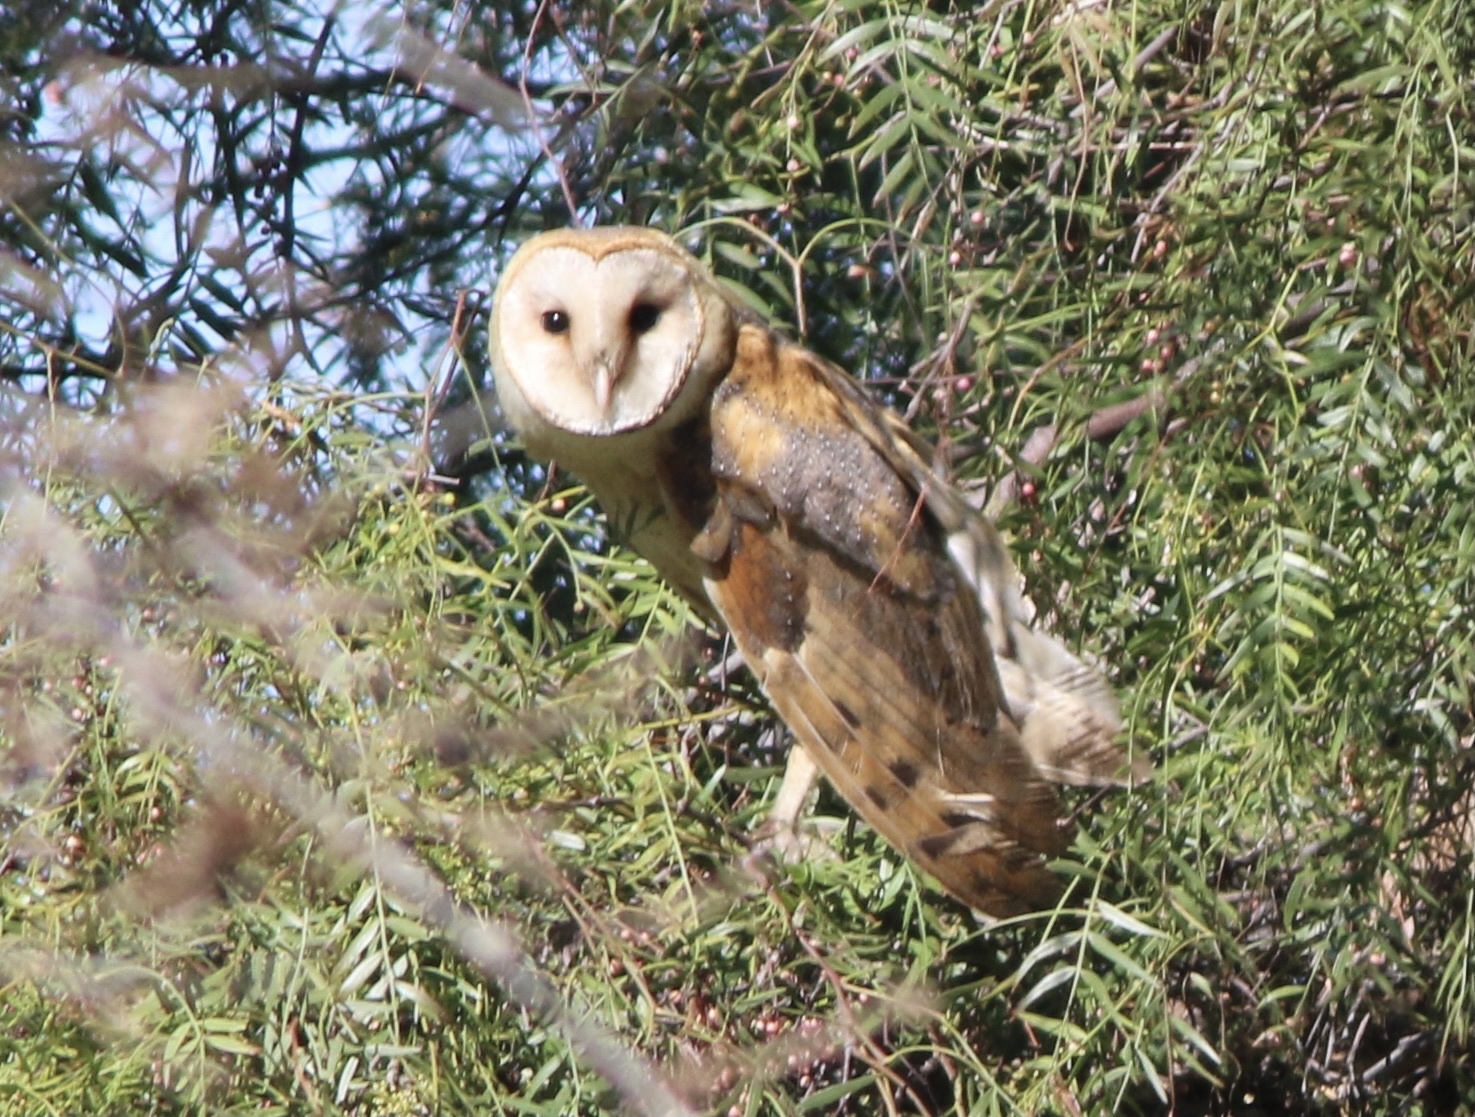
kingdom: Animalia
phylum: Chordata
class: Aves
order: Strigiformes
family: Tytonidae
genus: Tyto
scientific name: Tyto alba
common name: Barn owl
